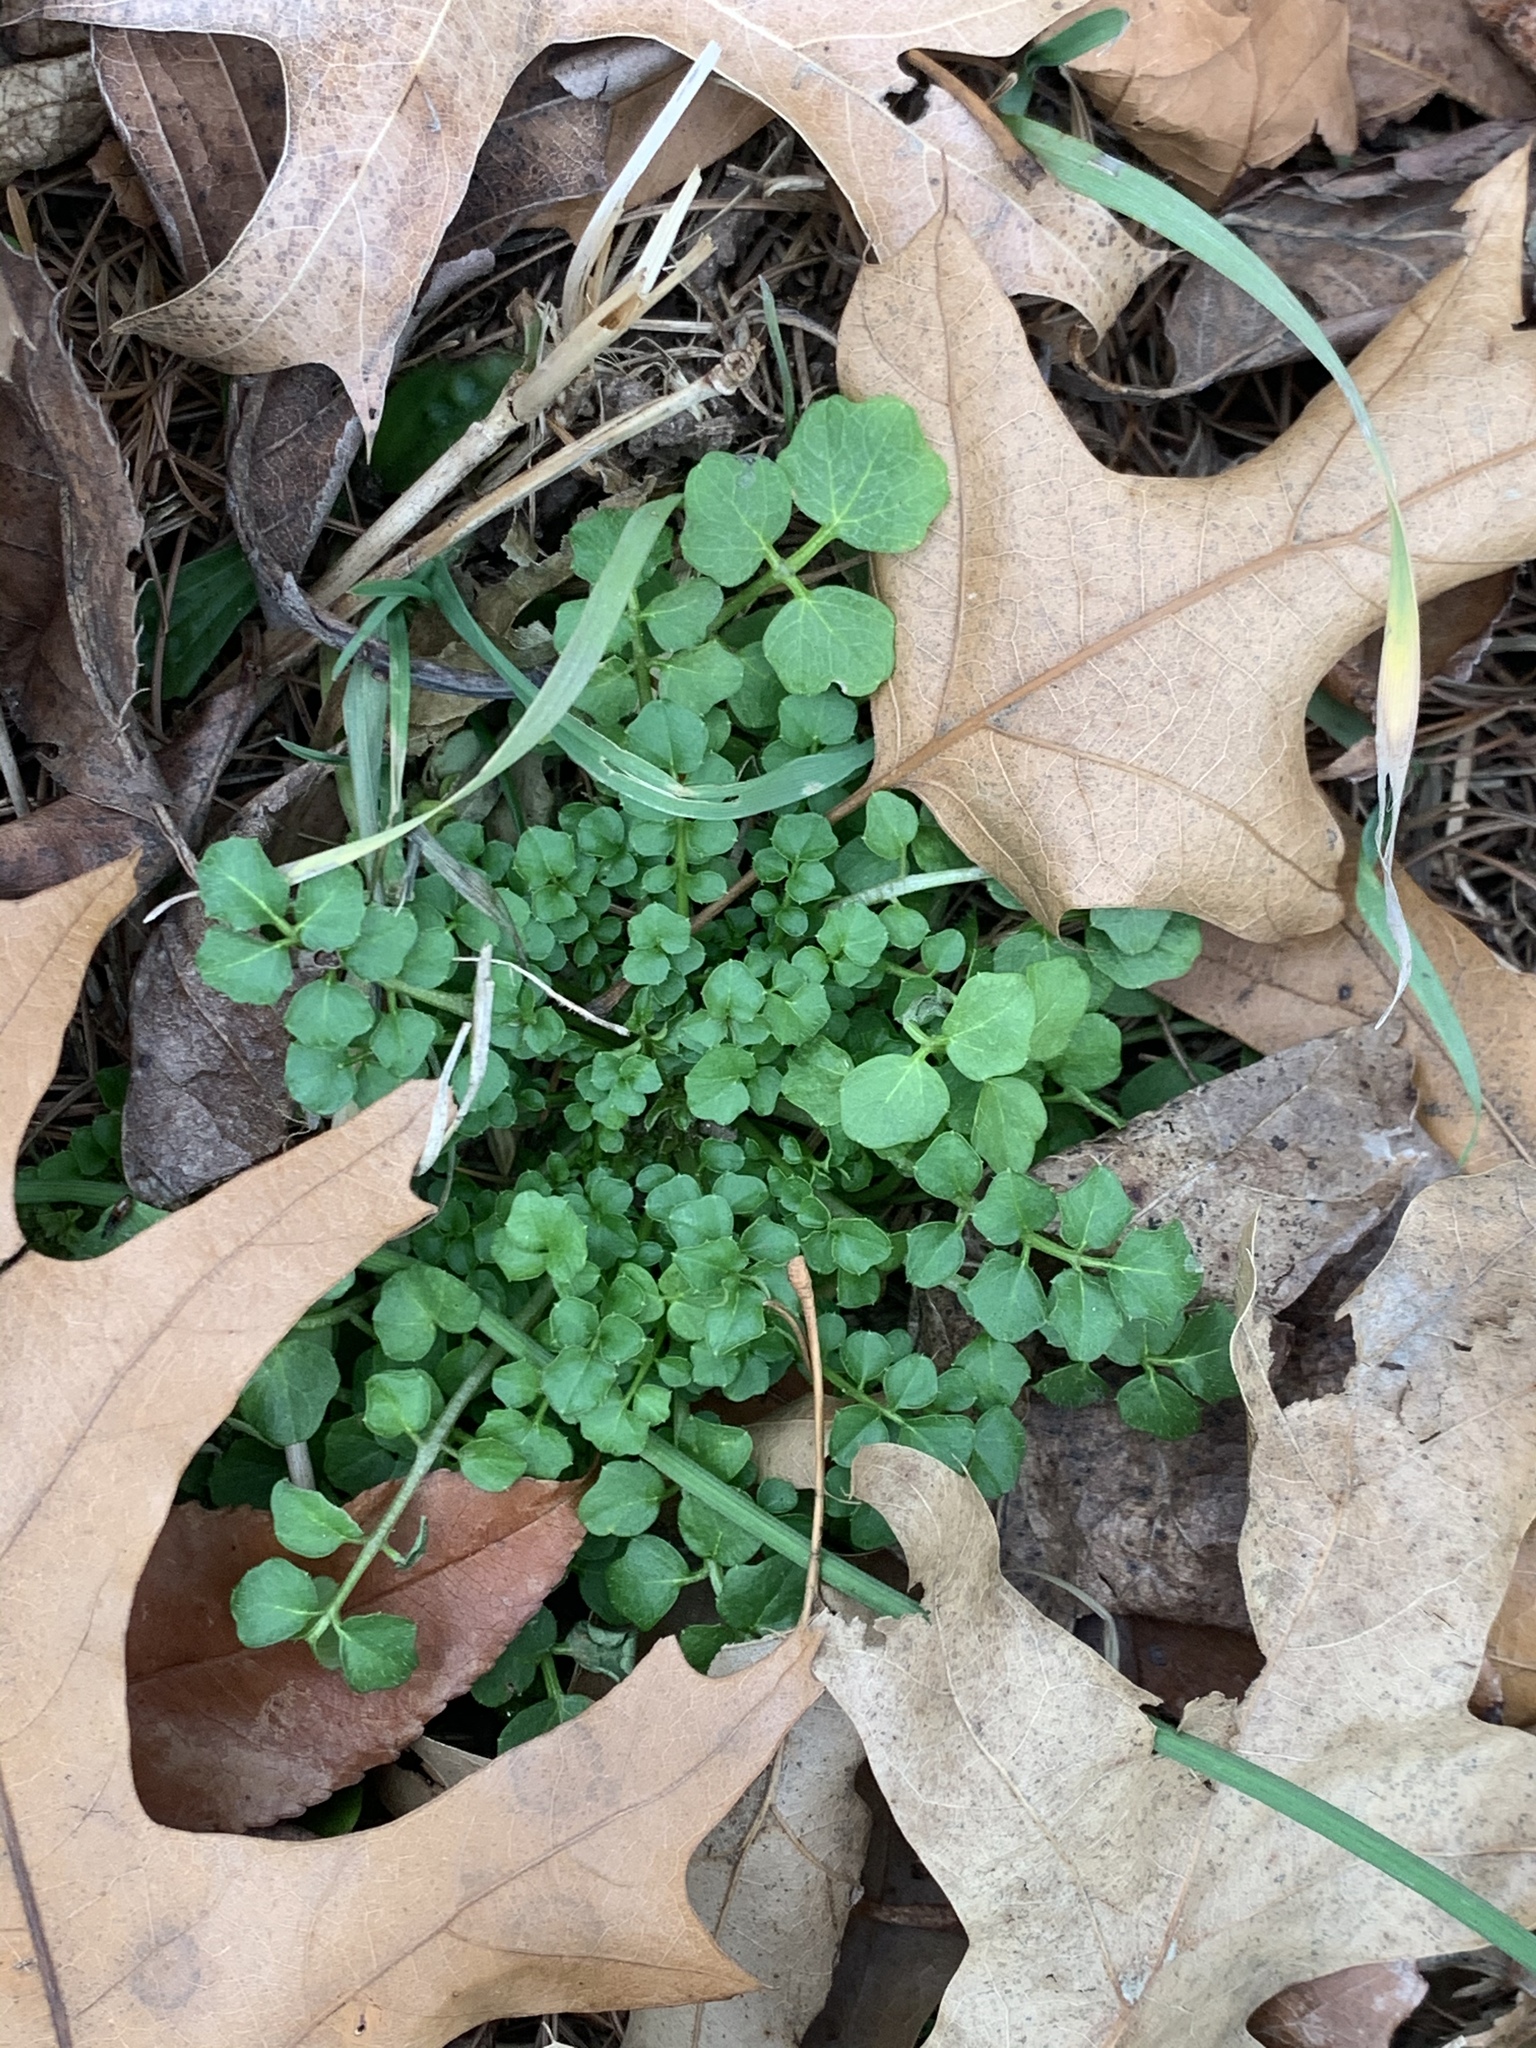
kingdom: Plantae
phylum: Tracheophyta
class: Magnoliopsida
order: Brassicales
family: Brassicaceae
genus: Cardamine
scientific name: Cardamine hirsuta
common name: Hairy bittercress
